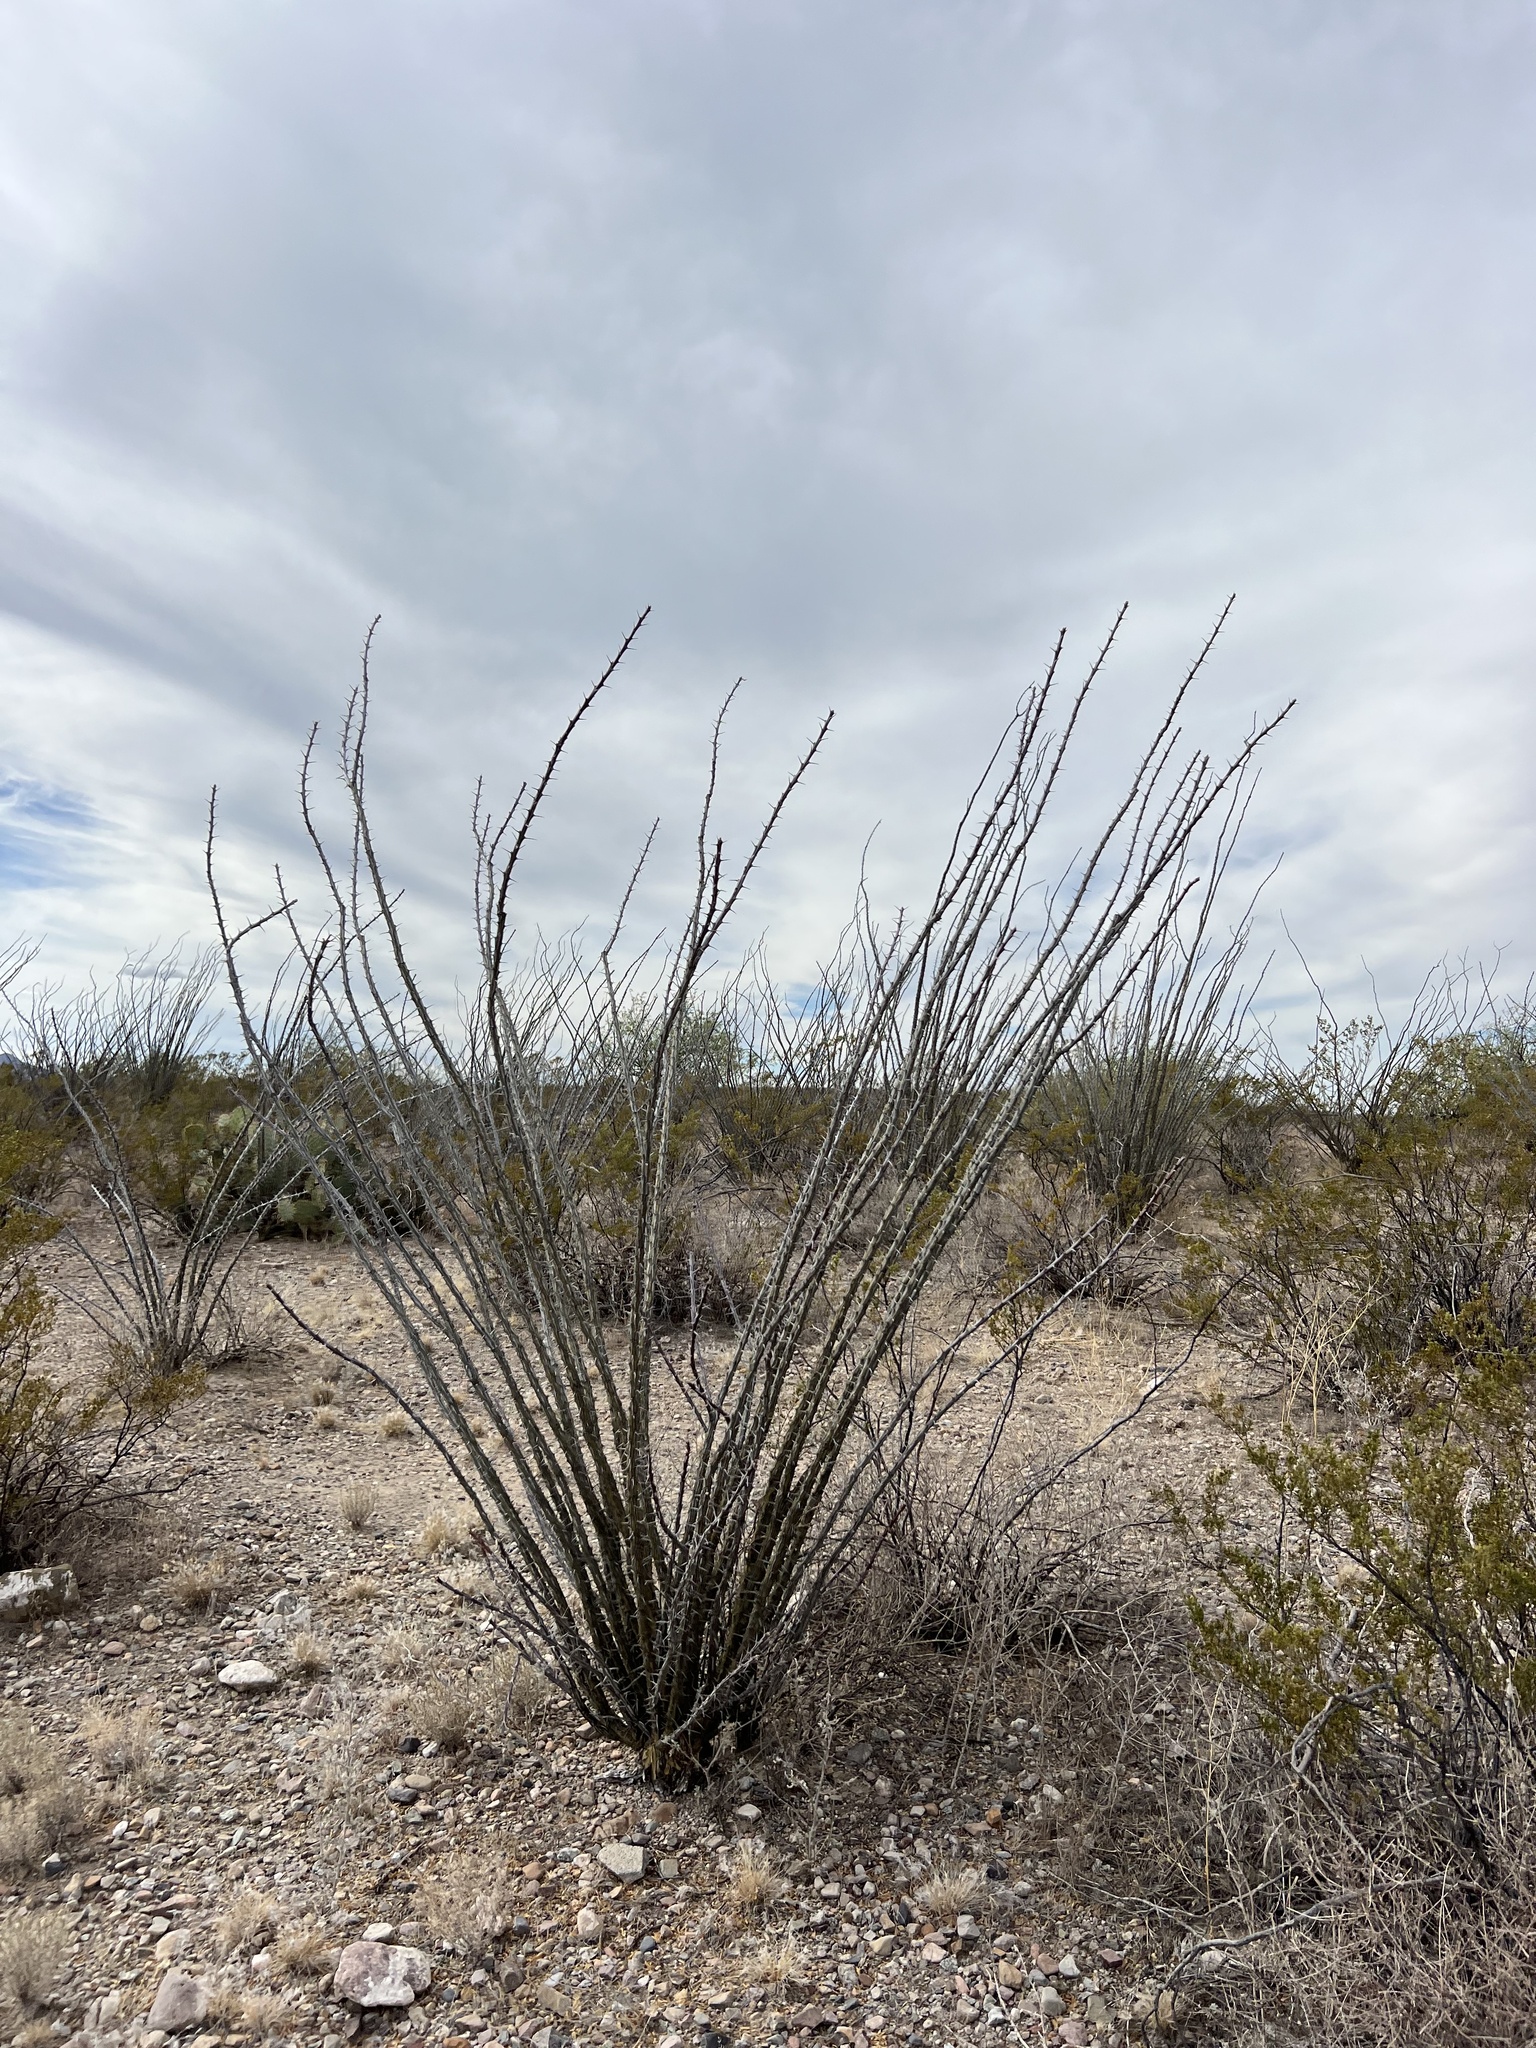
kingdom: Plantae
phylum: Tracheophyta
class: Magnoliopsida
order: Ericales
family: Fouquieriaceae
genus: Fouquieria
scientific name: Fouquieria splendens
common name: Vine-cactus
